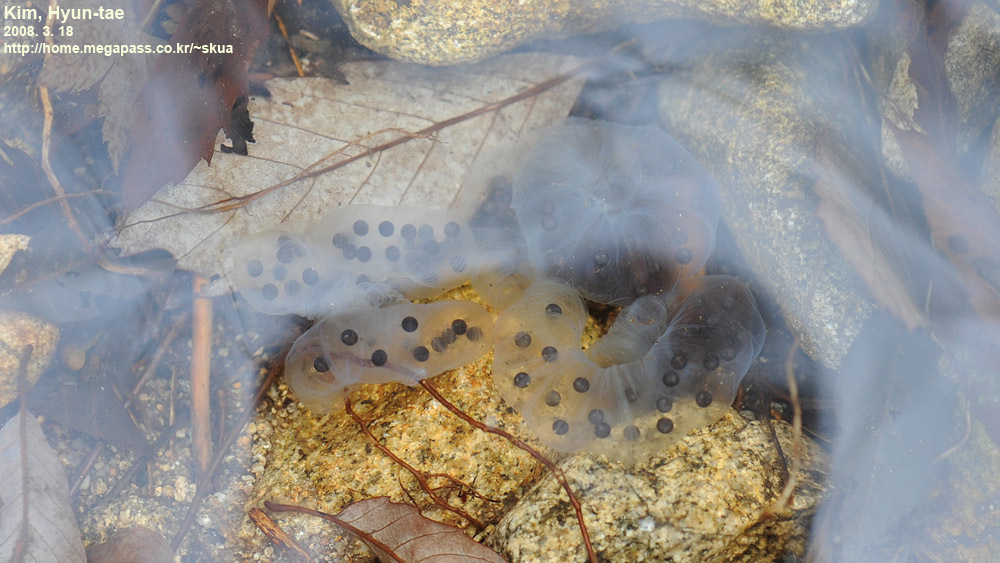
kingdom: Animalia
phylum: Chordata
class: Amphibia
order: Caudata
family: Hynobiidae
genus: Hynobius
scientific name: Hynobius leechii
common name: Gensan salamander
